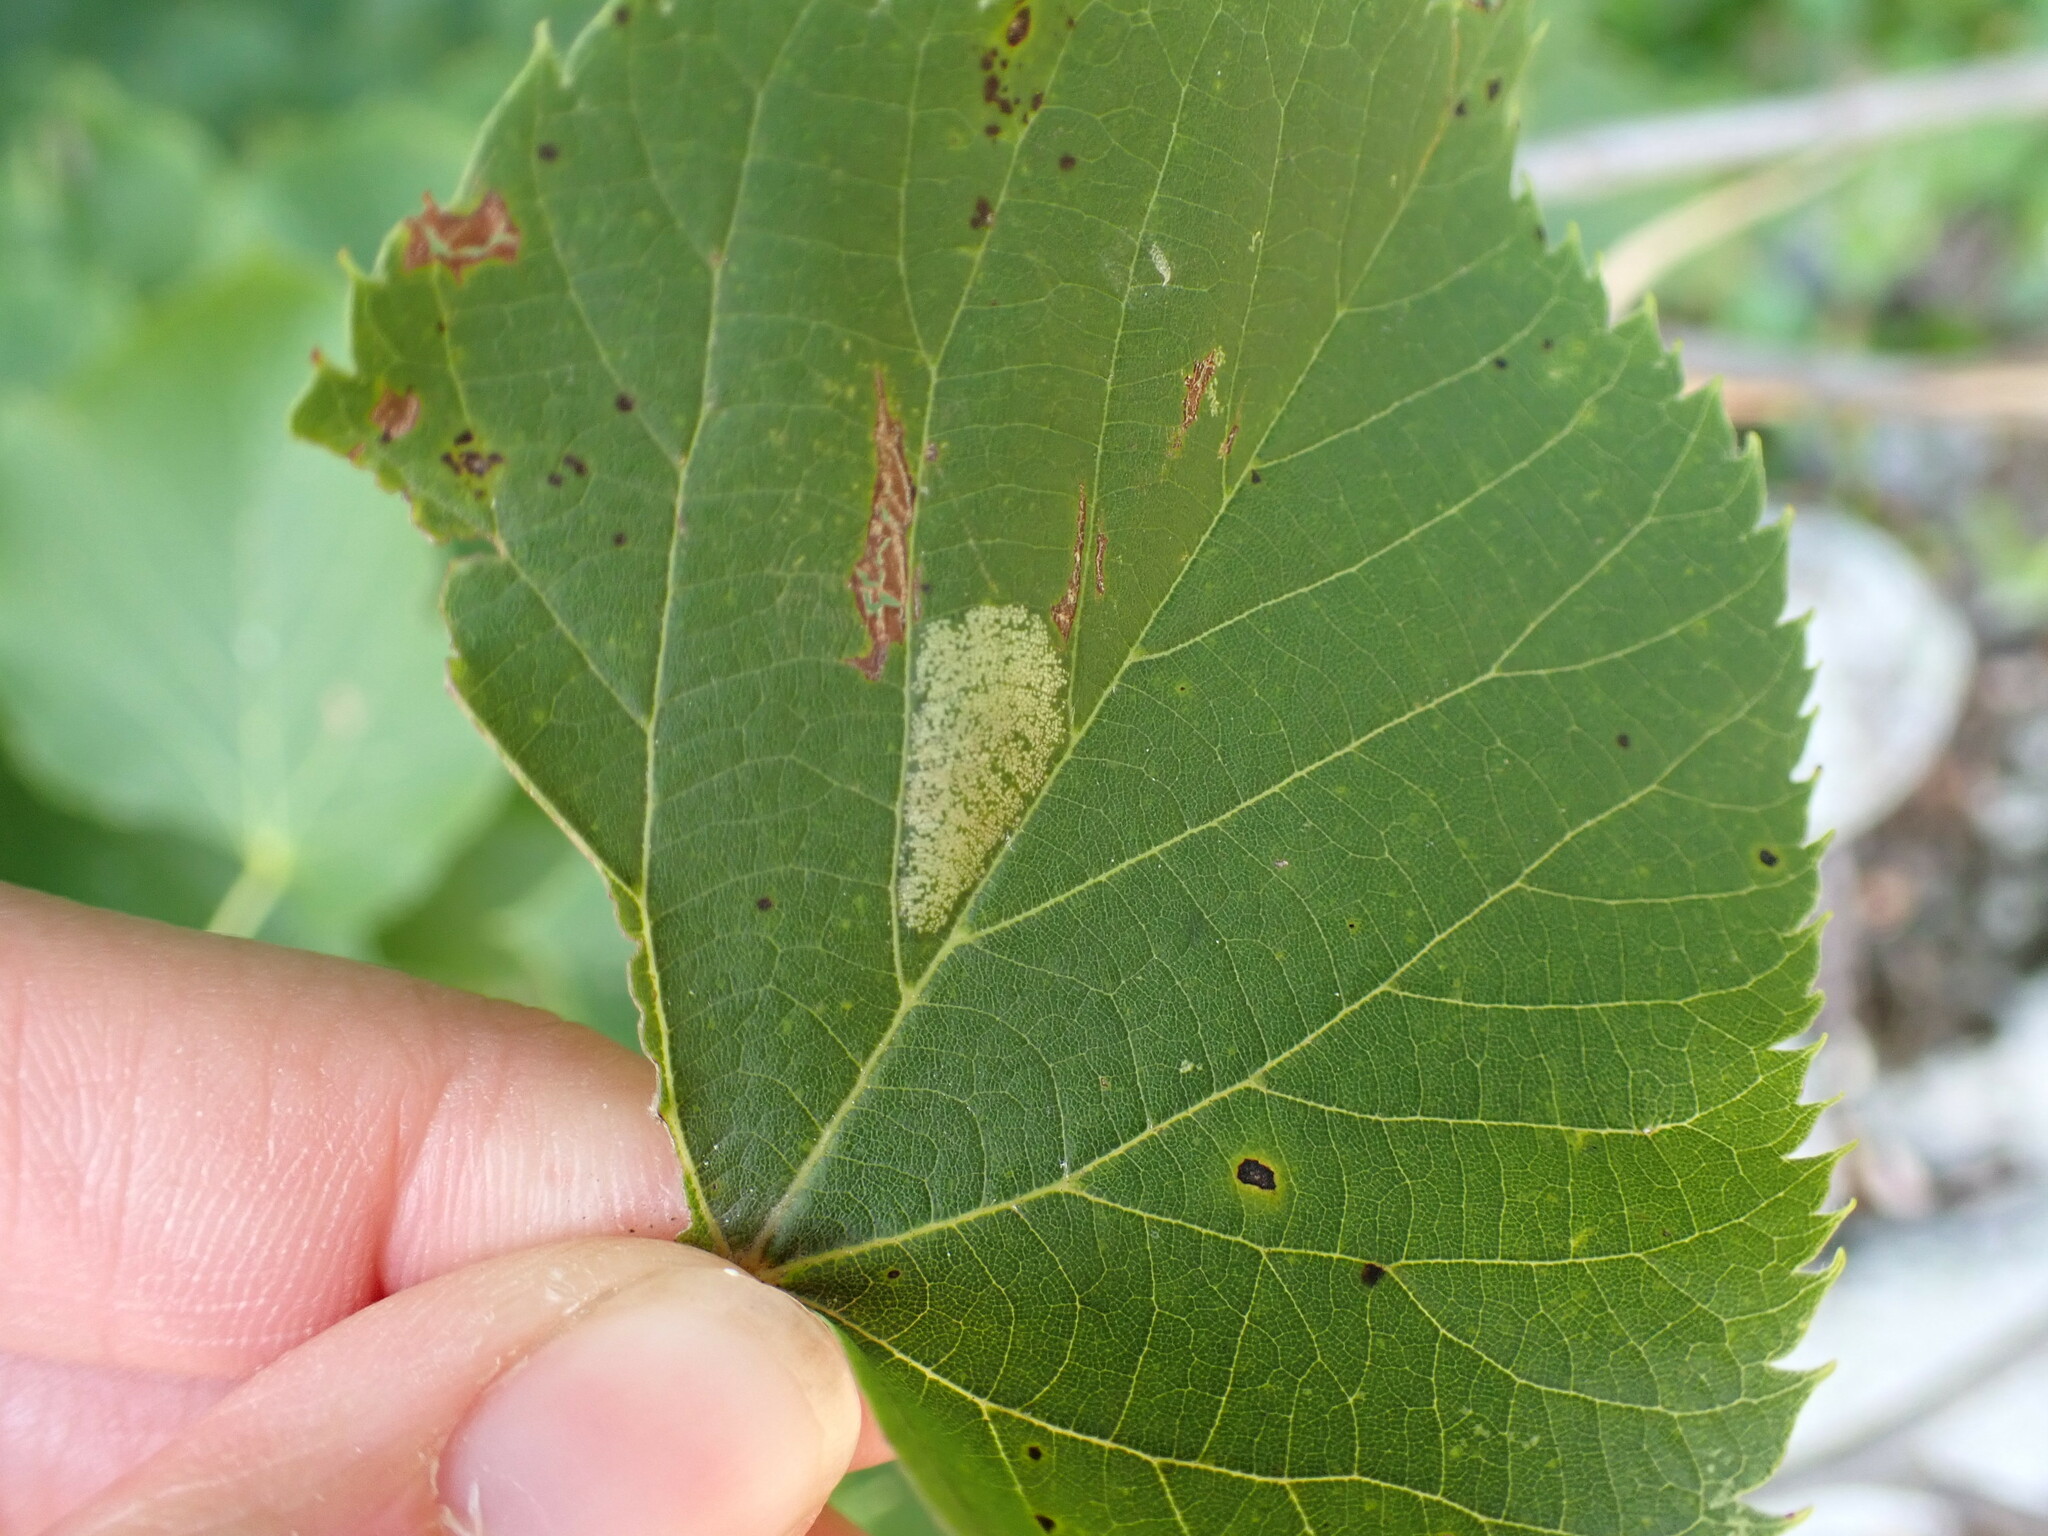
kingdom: Animalia
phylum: Arthropoda
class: Insecta
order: Lepidoptera
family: Gracillariidae
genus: Phyllonorycter
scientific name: Phyllonorycter lucetiella
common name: Basswood miner moth
